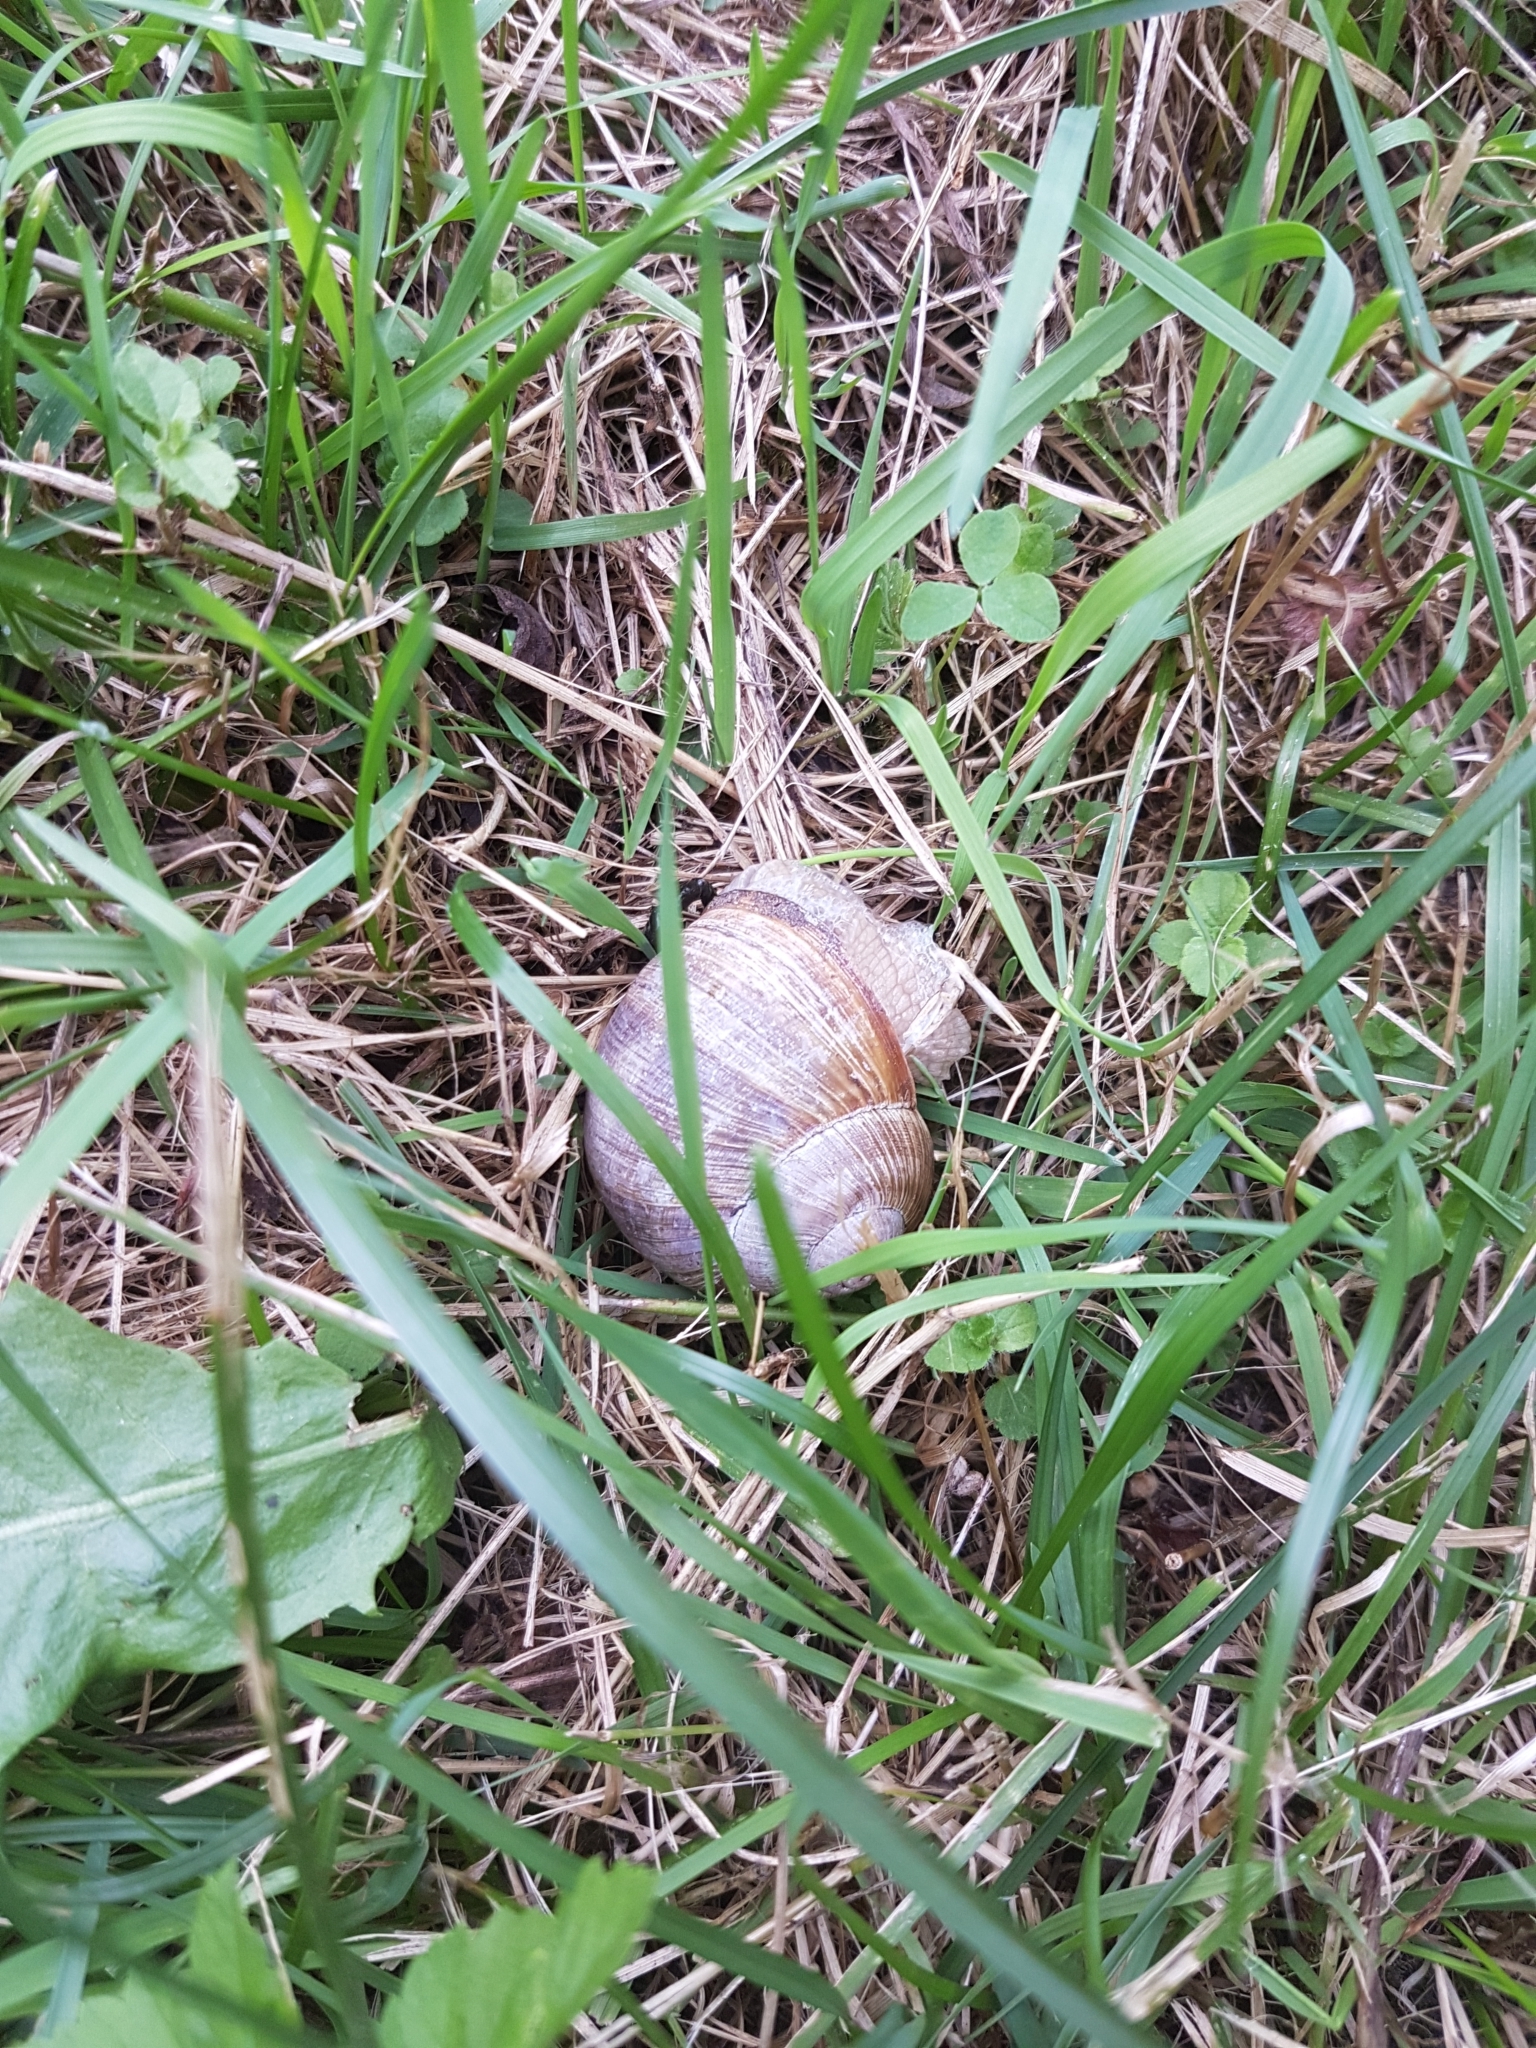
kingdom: Animalia
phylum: Mollusca
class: Gastropoda
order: Stylommatophora
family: Helicidae
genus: Helix
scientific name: Helix pomatia
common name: Roman snail
